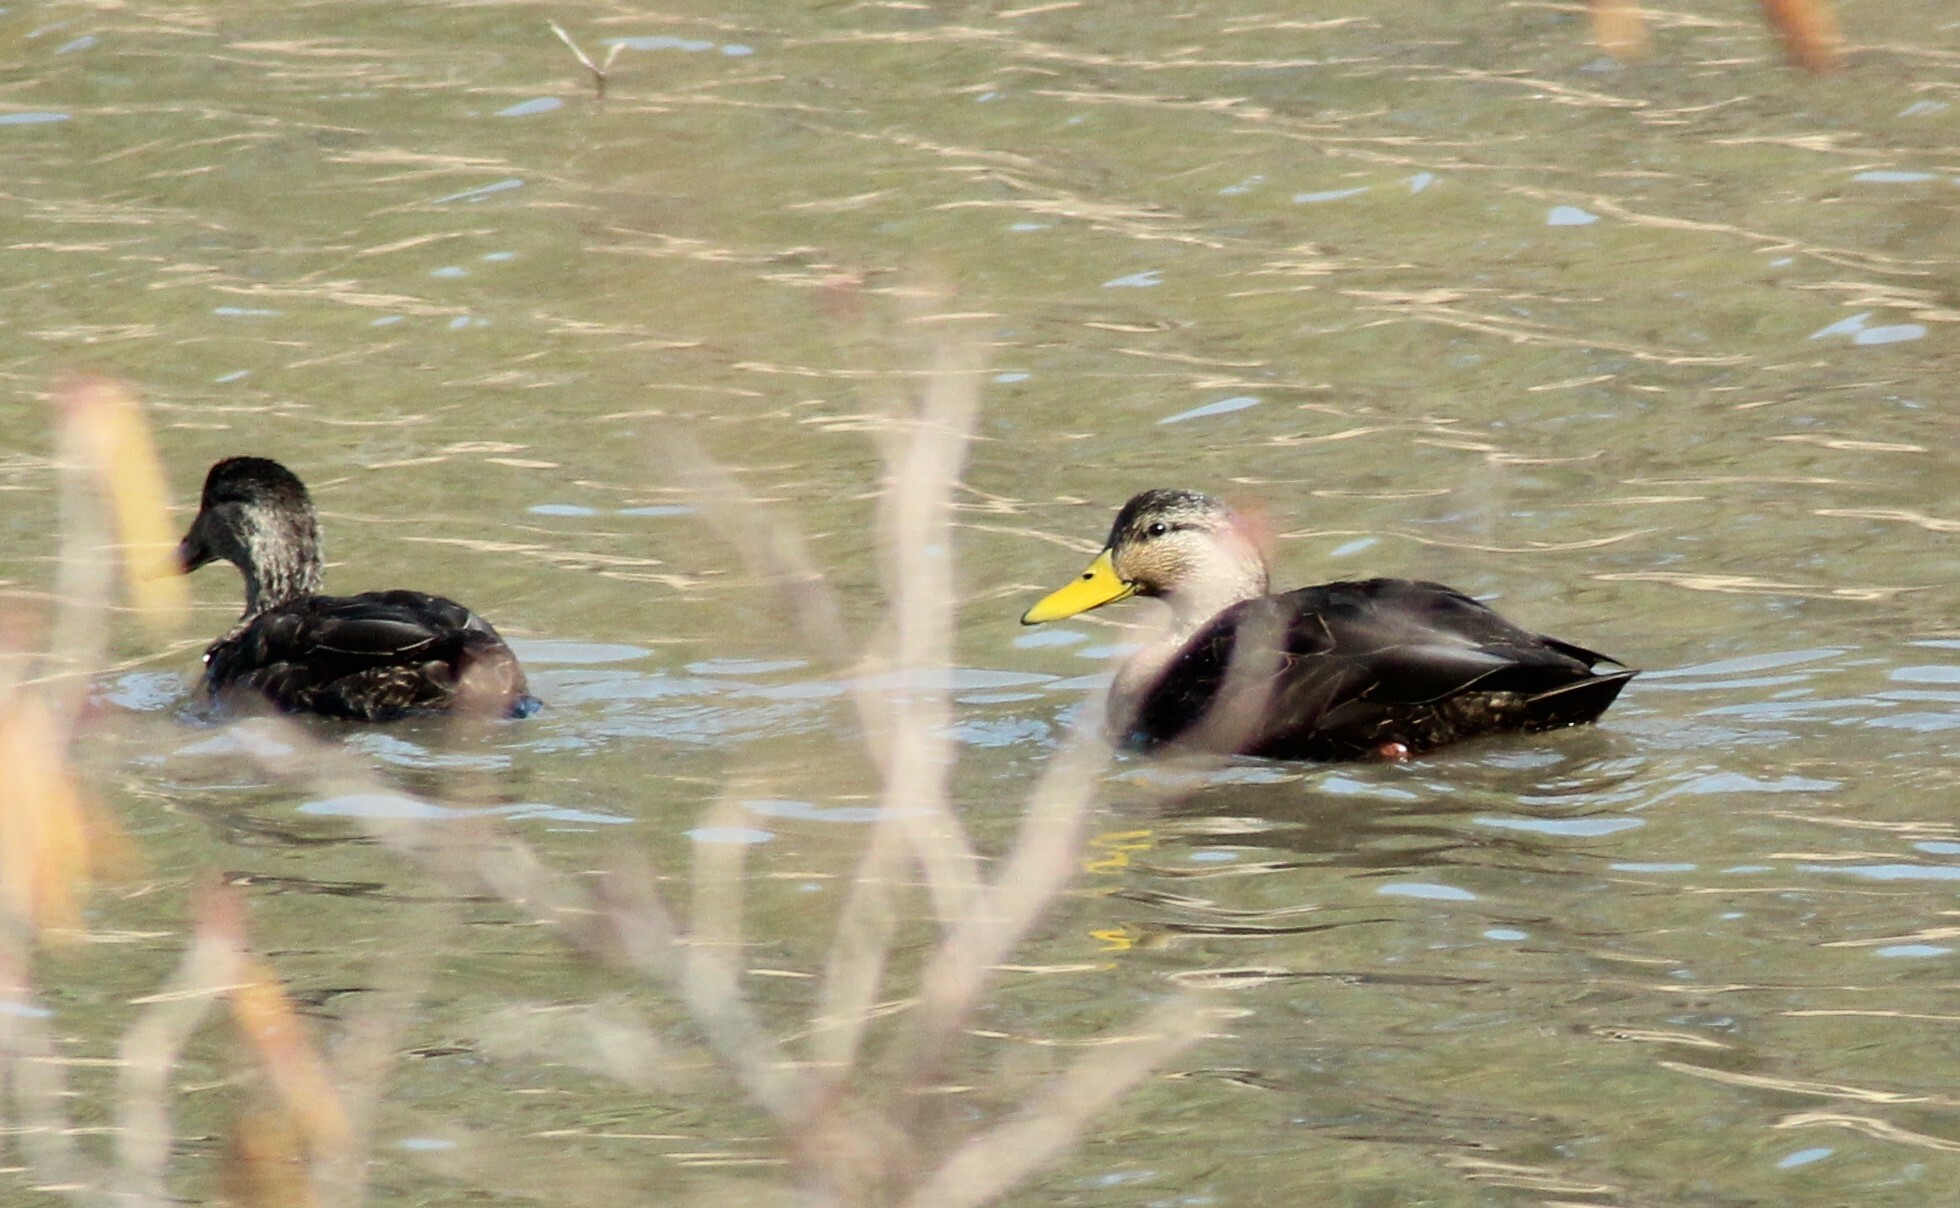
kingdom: Animalia
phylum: Chordata
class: Aves
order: Anseriformes
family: Anatidae
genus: Anas
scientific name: Anas rubripes
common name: American black duck
